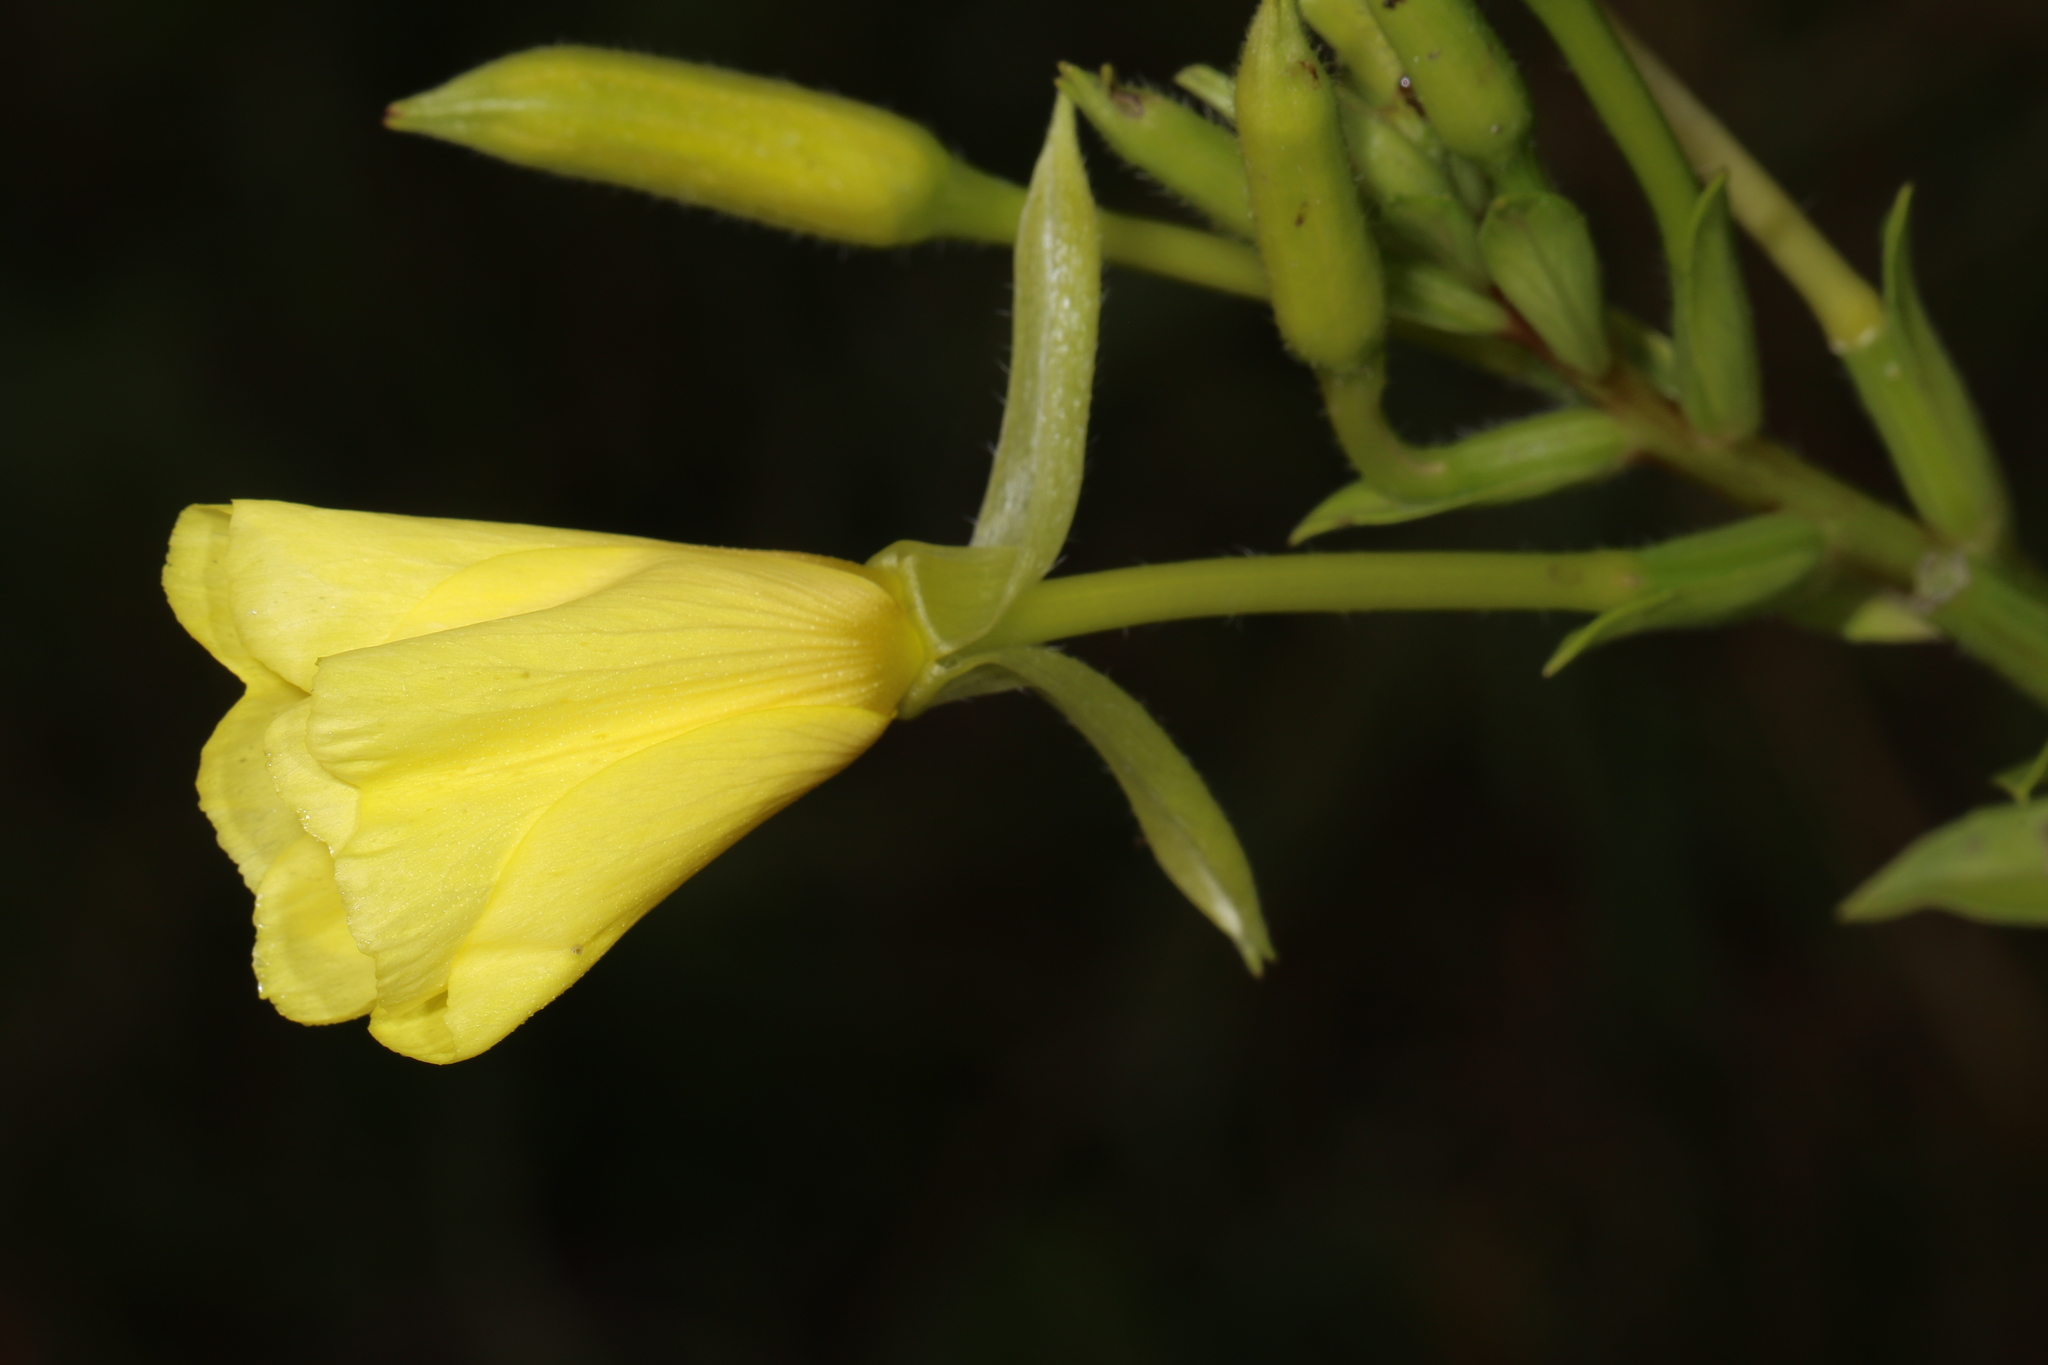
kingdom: Plantae
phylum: Tracheophyta
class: Magnoliopsida
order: Myrtales
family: Onagraceae
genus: Oenothera
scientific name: Oenothera biennis
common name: Common evening-primrose
